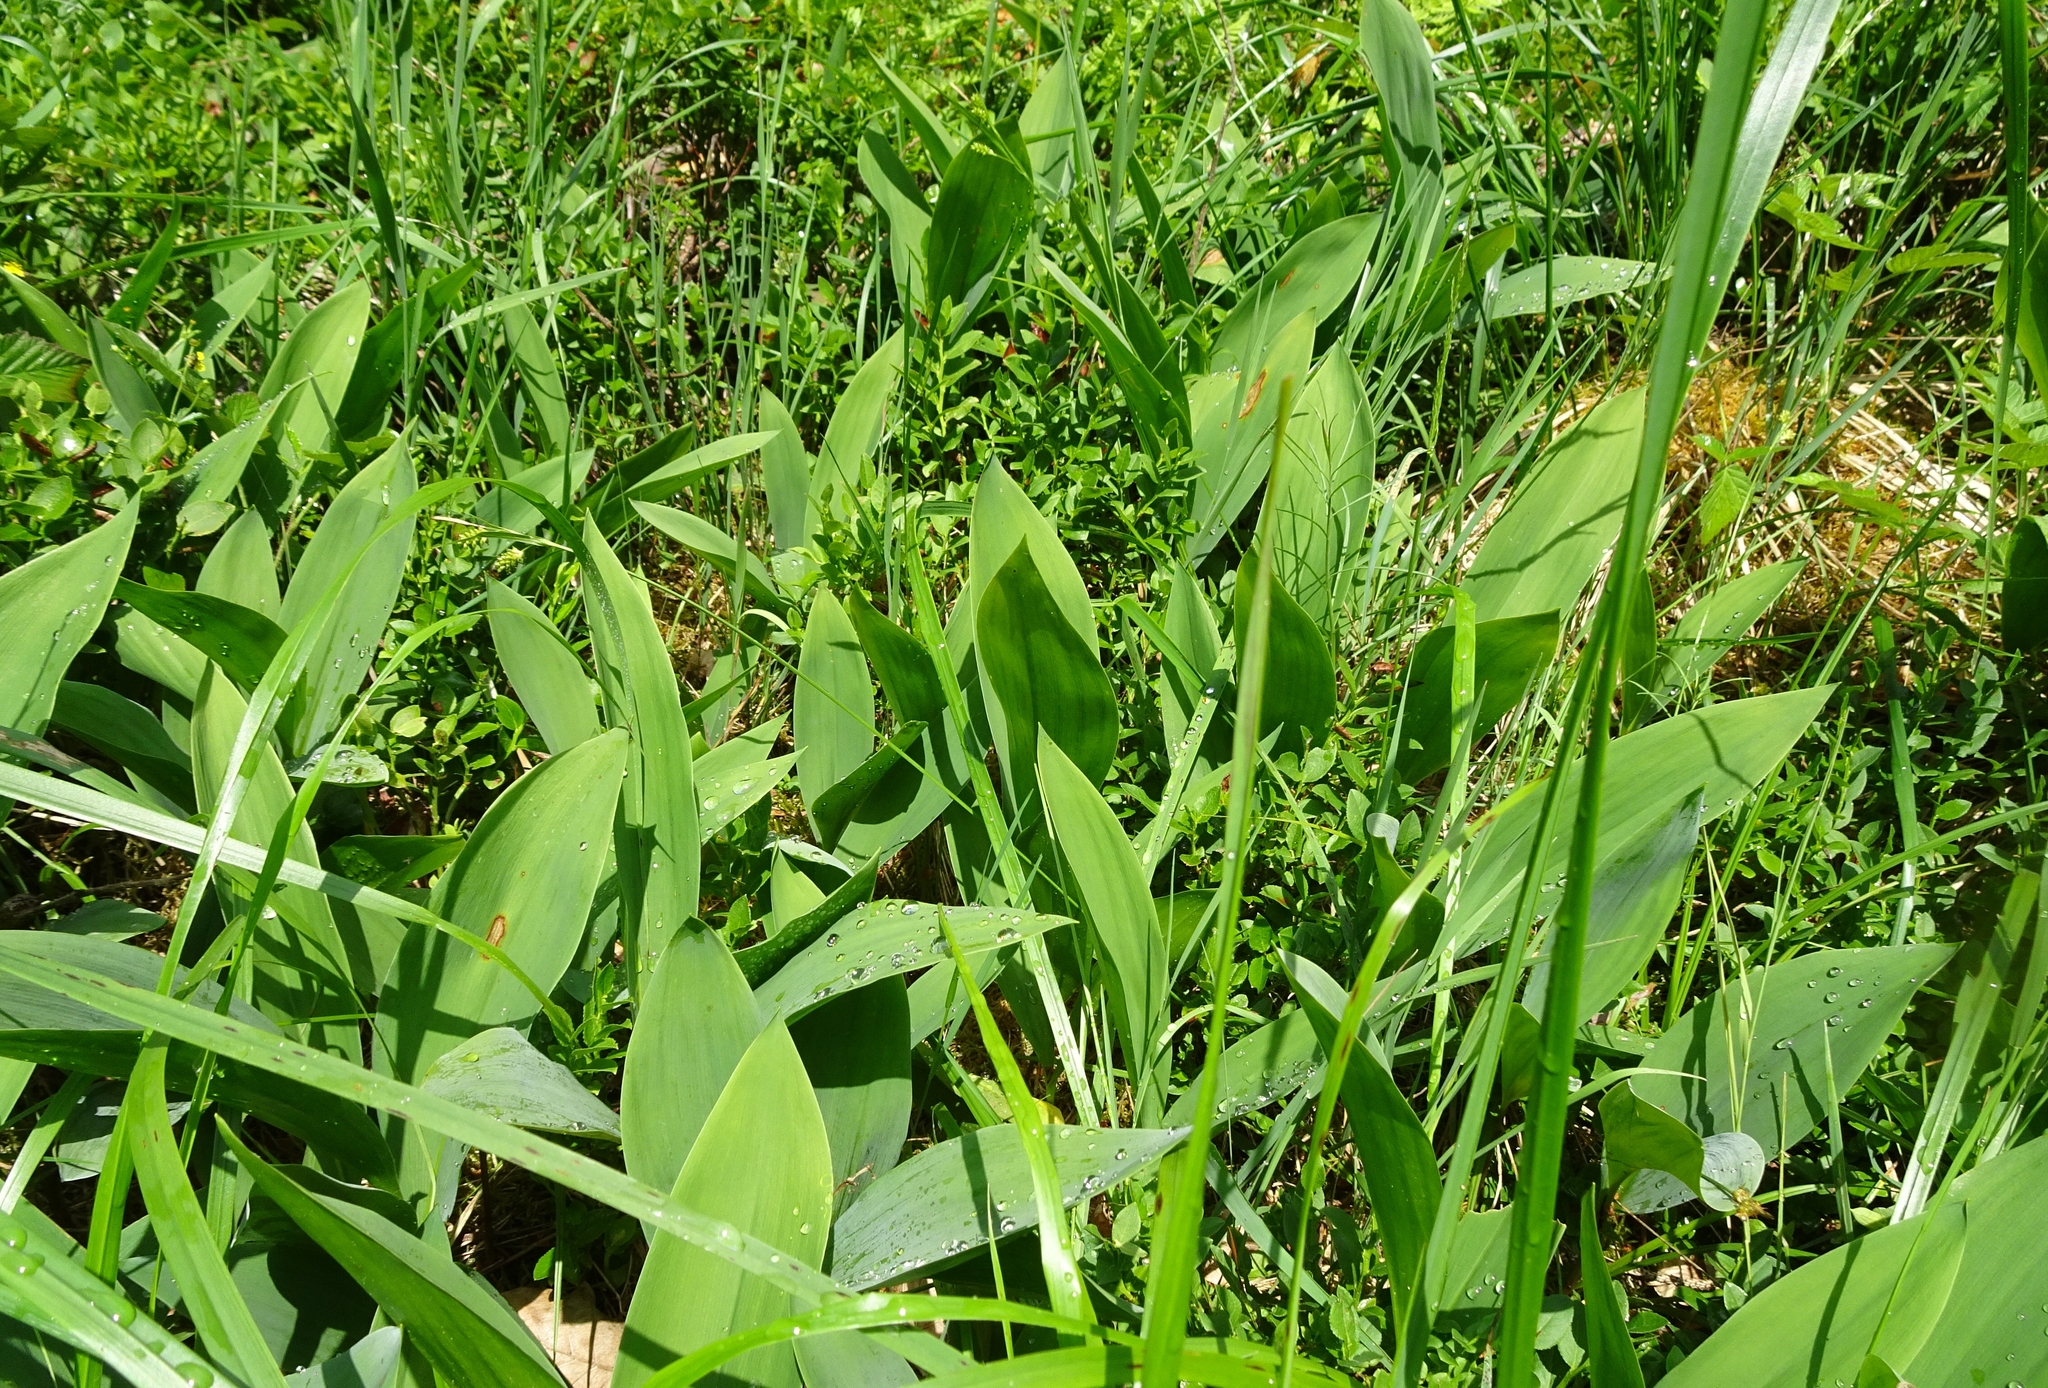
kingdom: Plantae
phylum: Tracheophyta
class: Liliopsida
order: Asparagales
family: Asparagaceae
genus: Convallaria
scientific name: Convallaria majalis
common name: Lily-of-the-valley
